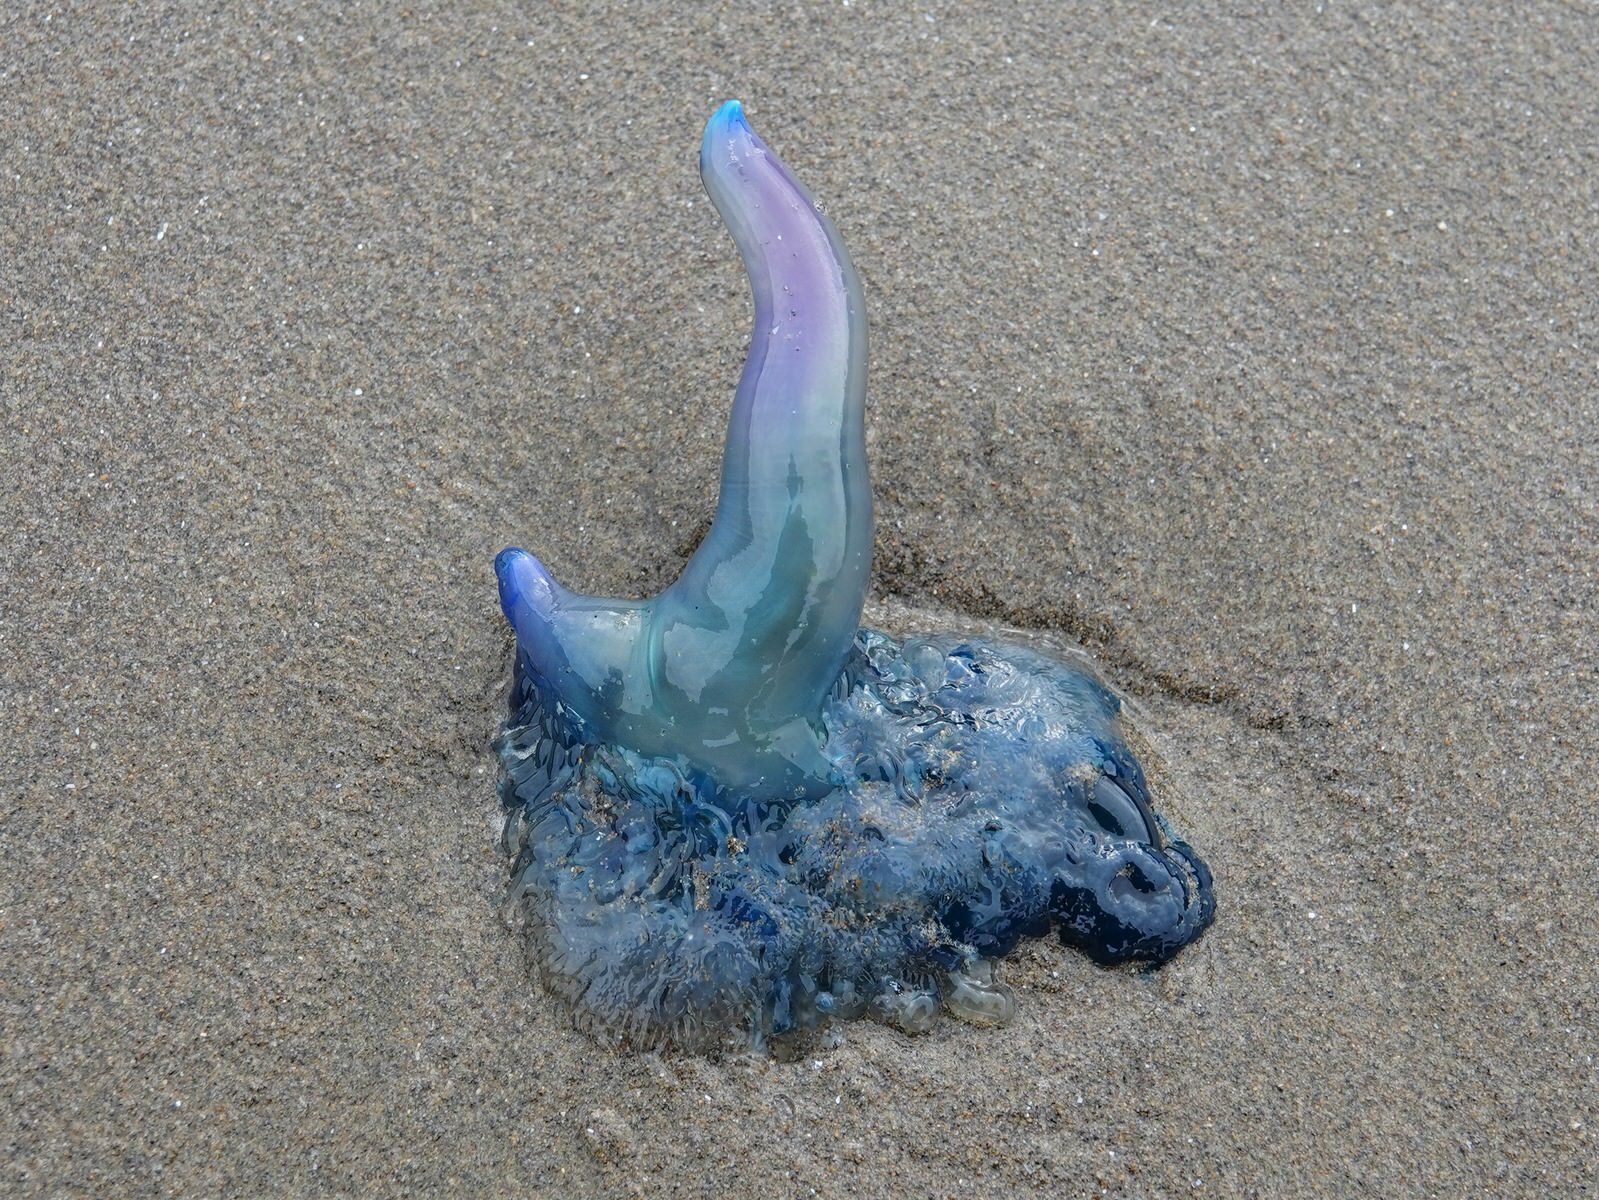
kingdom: Animalia
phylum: Cnidaria
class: Hydrozoa
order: Siphonophorae
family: Physaliidae
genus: Physalia
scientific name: Physalia physalis
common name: Portuguese man-of-war
